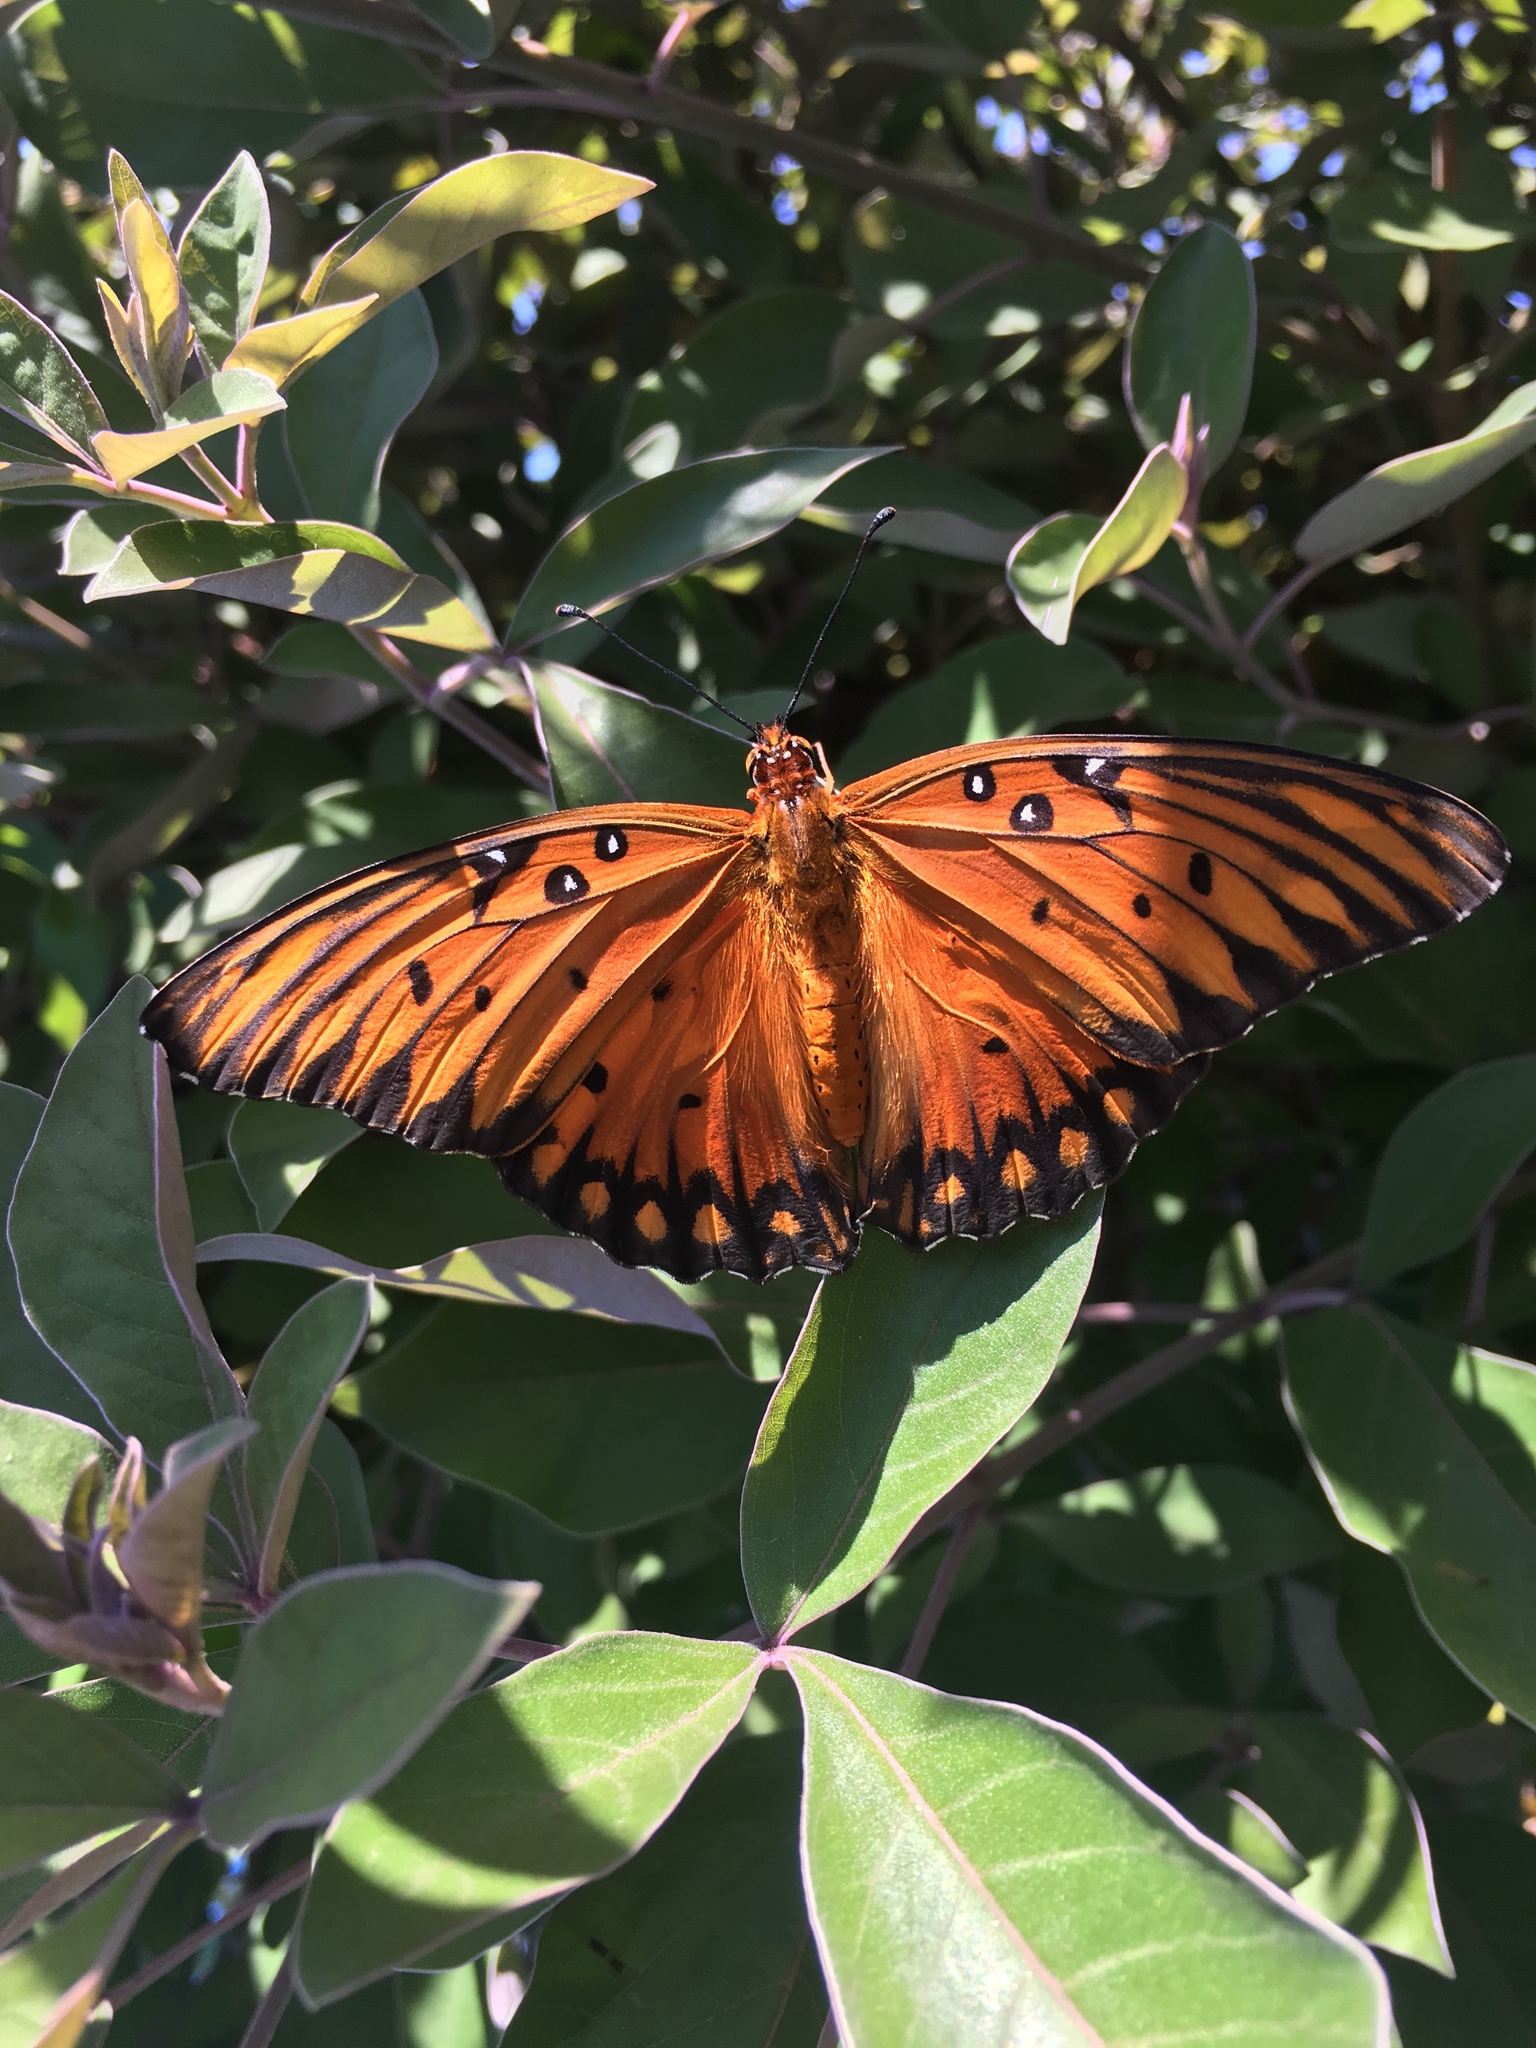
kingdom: Animalia
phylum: Arthropoda
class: Insecta
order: Lepidoptera
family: Nymphalidae
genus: Dione
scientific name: Dione vanillae
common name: Gulf fritillary
